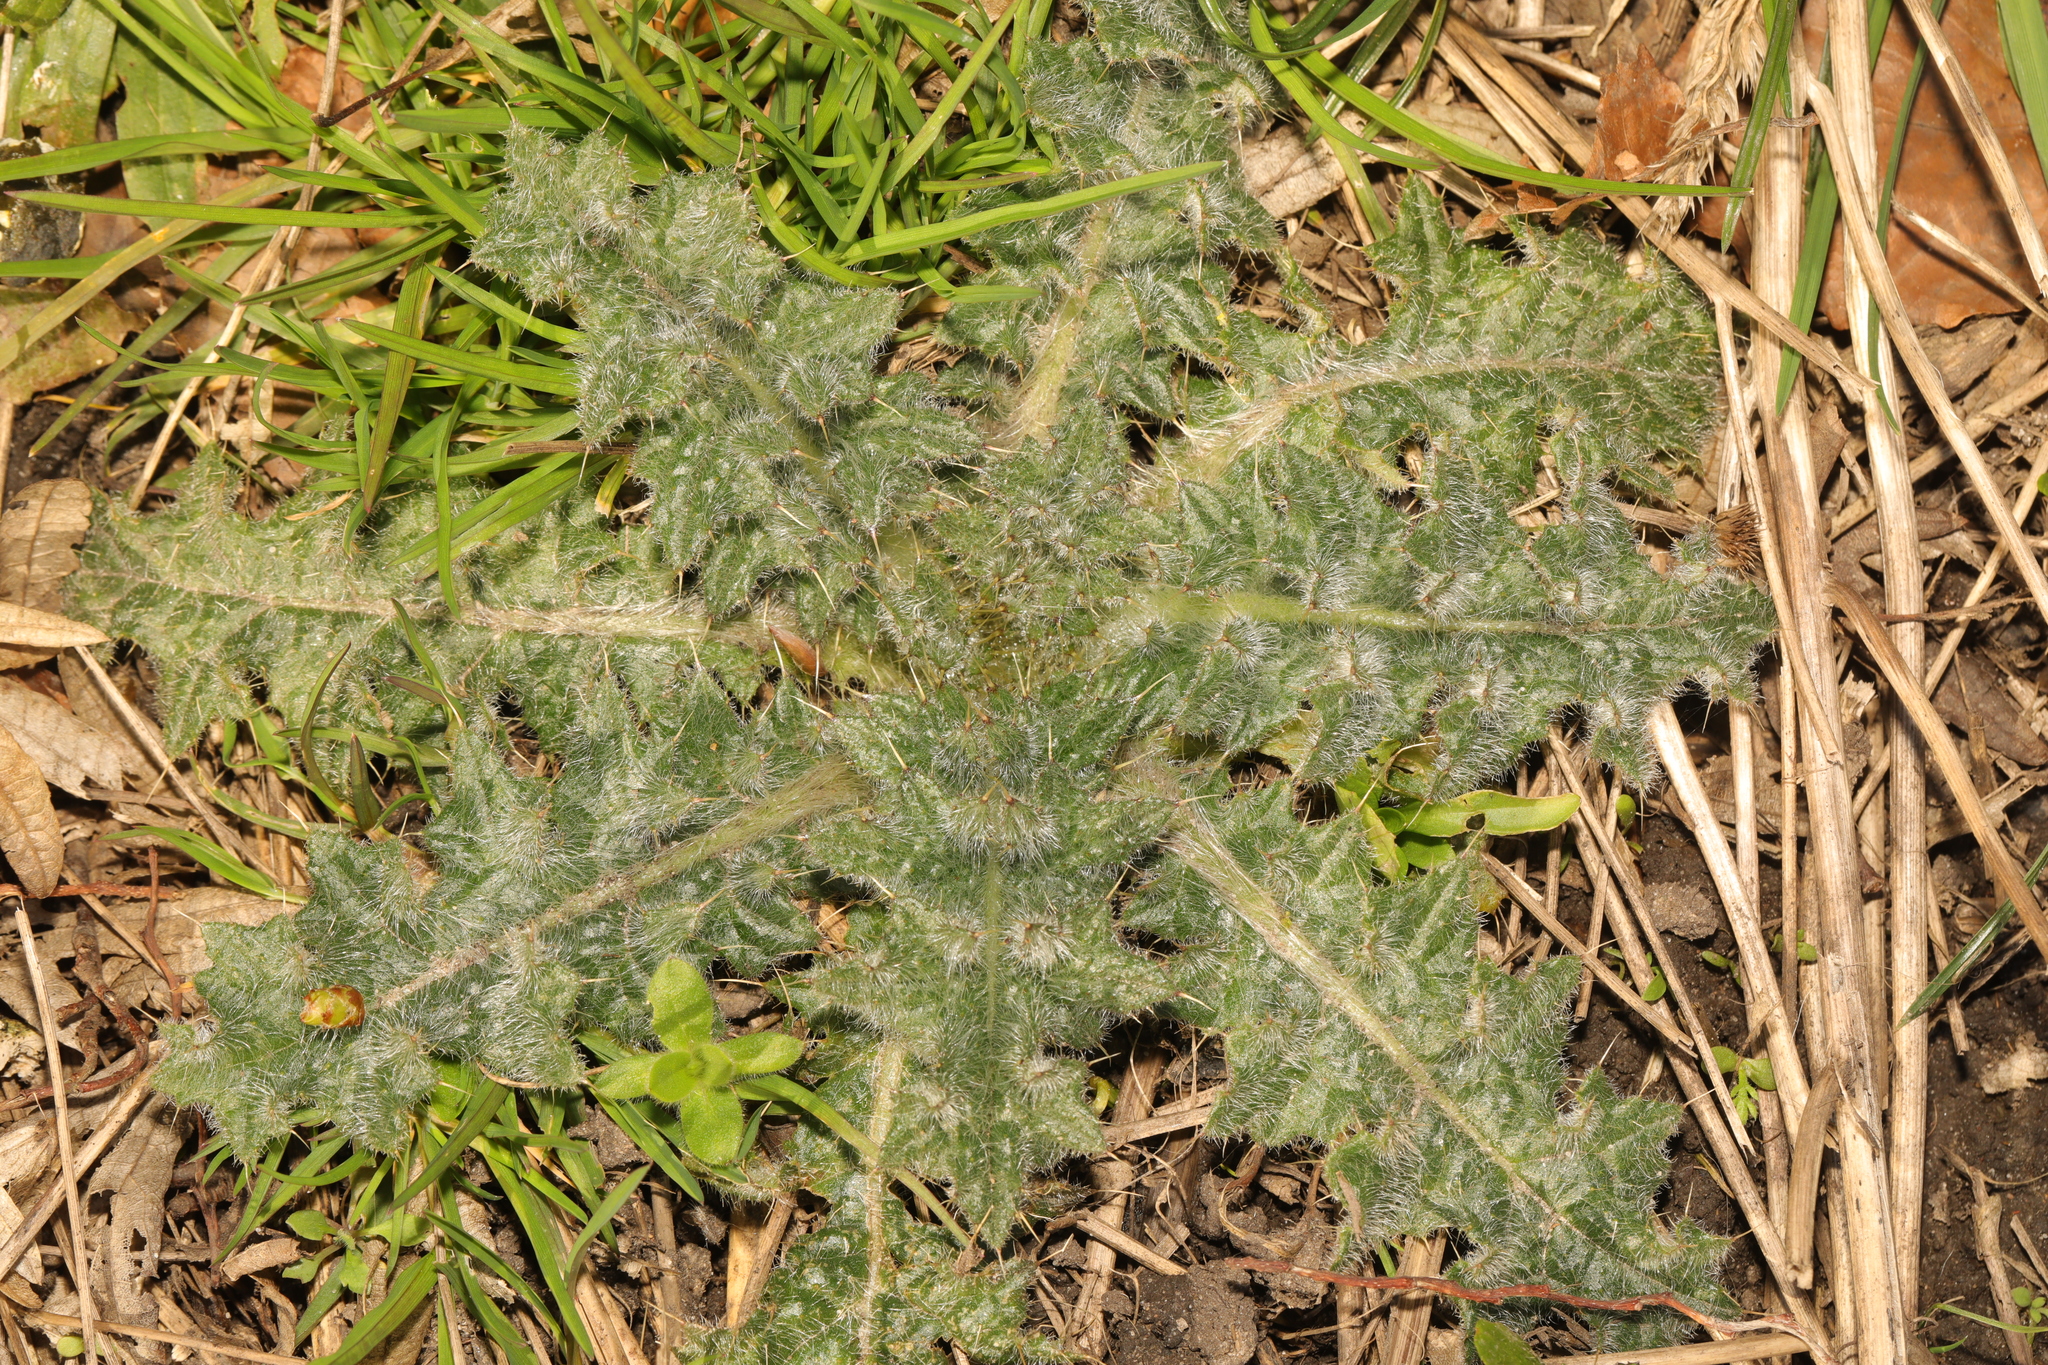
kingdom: Plantae
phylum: Tracheophyta
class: Magnoliopsida
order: Asterales
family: Asteraceae
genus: Cirsium
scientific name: Cirsium vulgare
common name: Bull thistle
